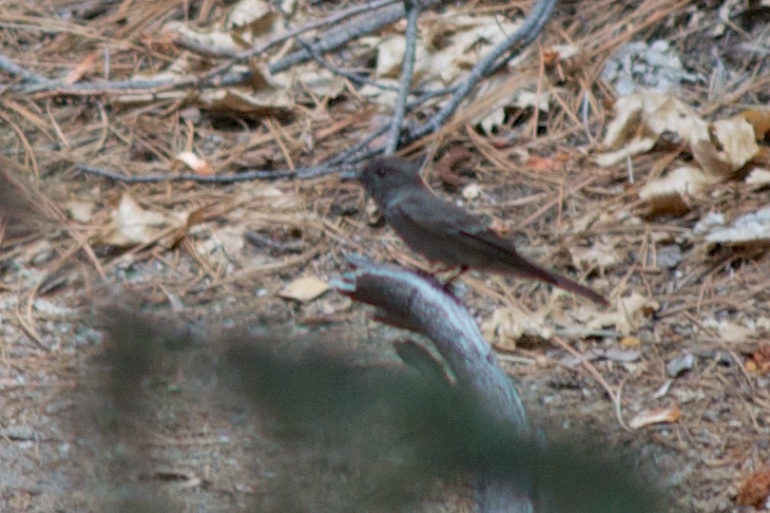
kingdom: Animalia
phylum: Chordata
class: Aves
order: Passeriformes
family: Tyrannidae
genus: Contopus
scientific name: Contopus sordidulus
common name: Western wood-pewee
